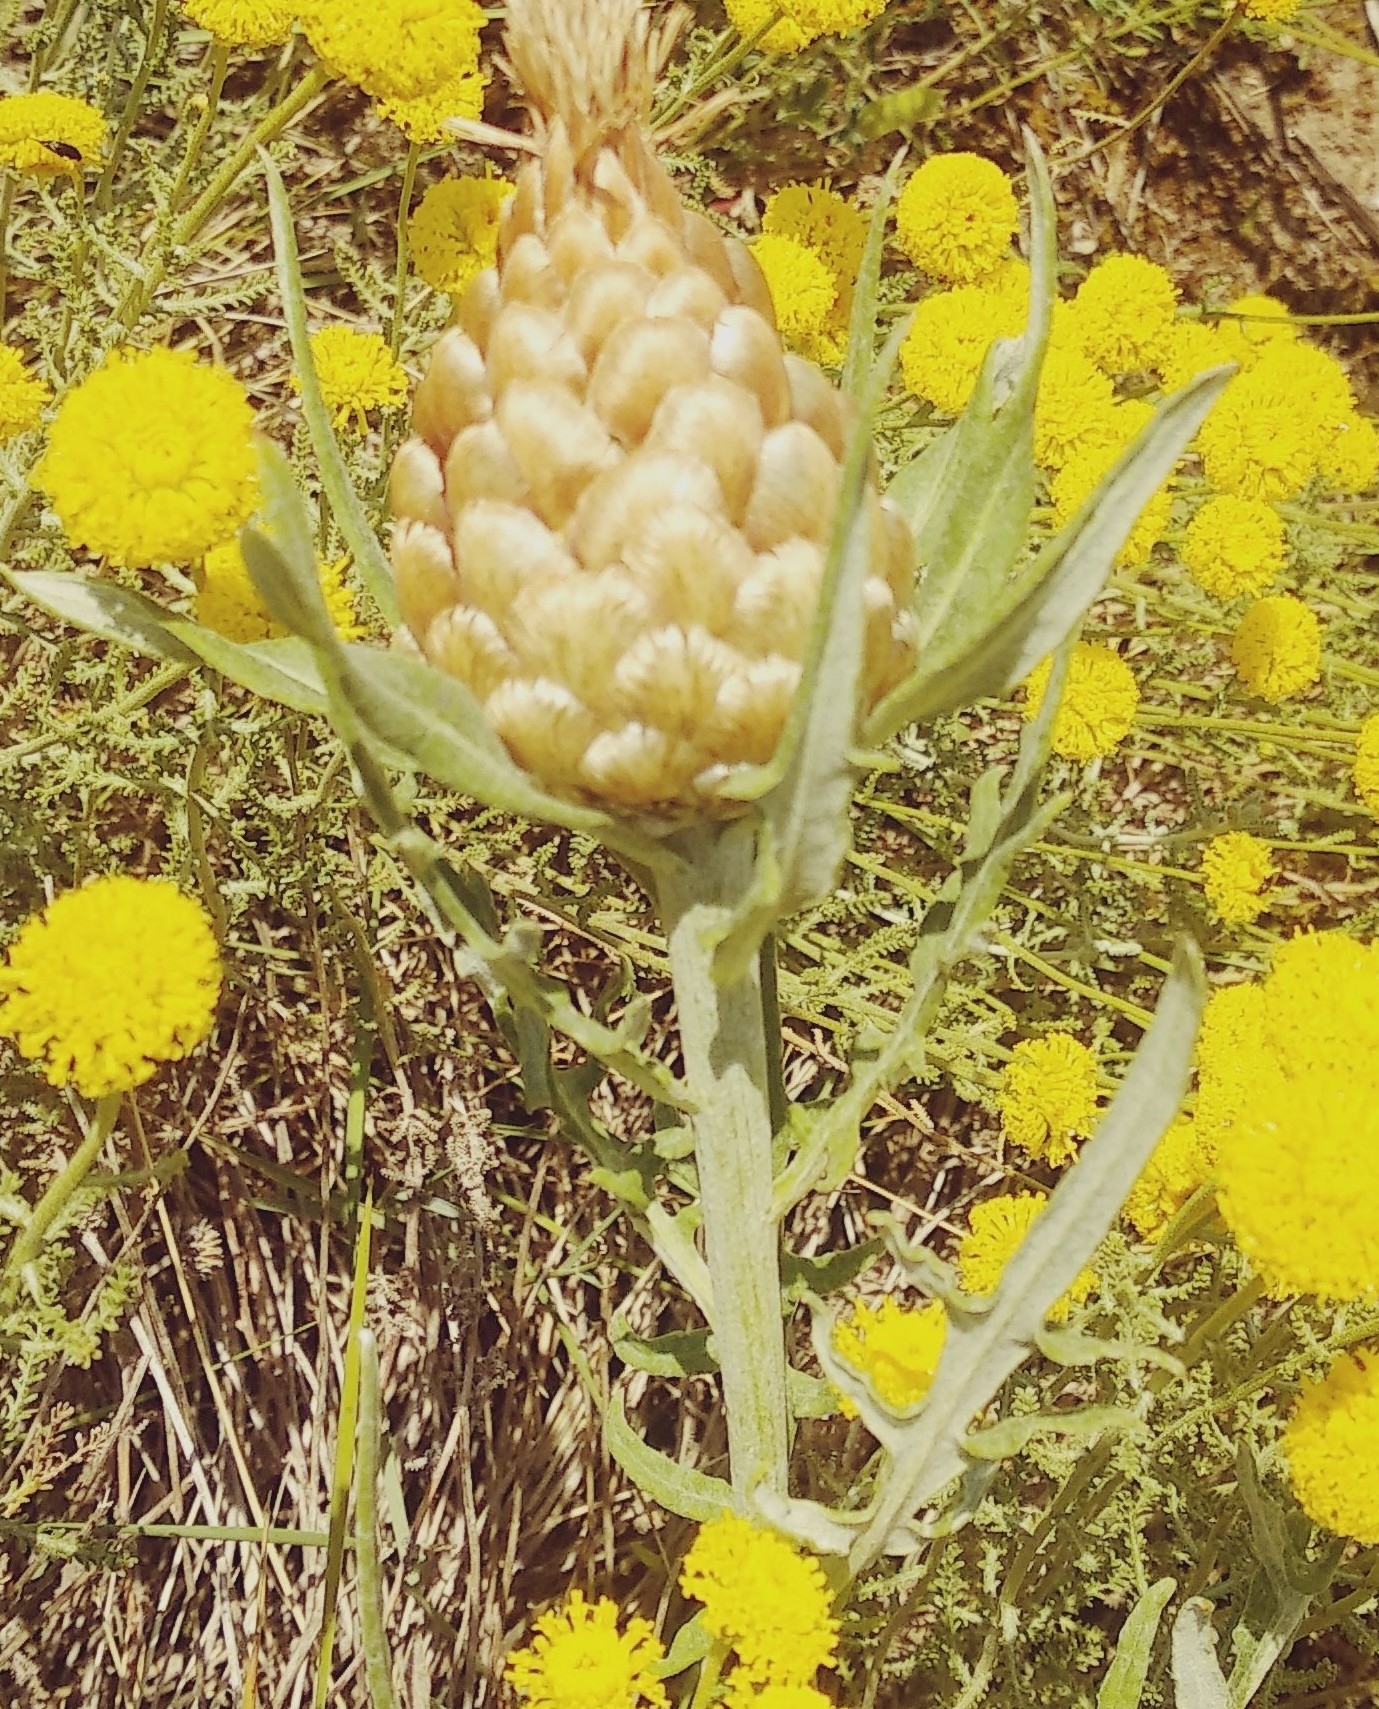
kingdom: Plantae
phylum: Tracheophyta
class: Magnoliopsida
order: Asterales
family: Asteraceae
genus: Leuzea
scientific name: Leuzea conifera
